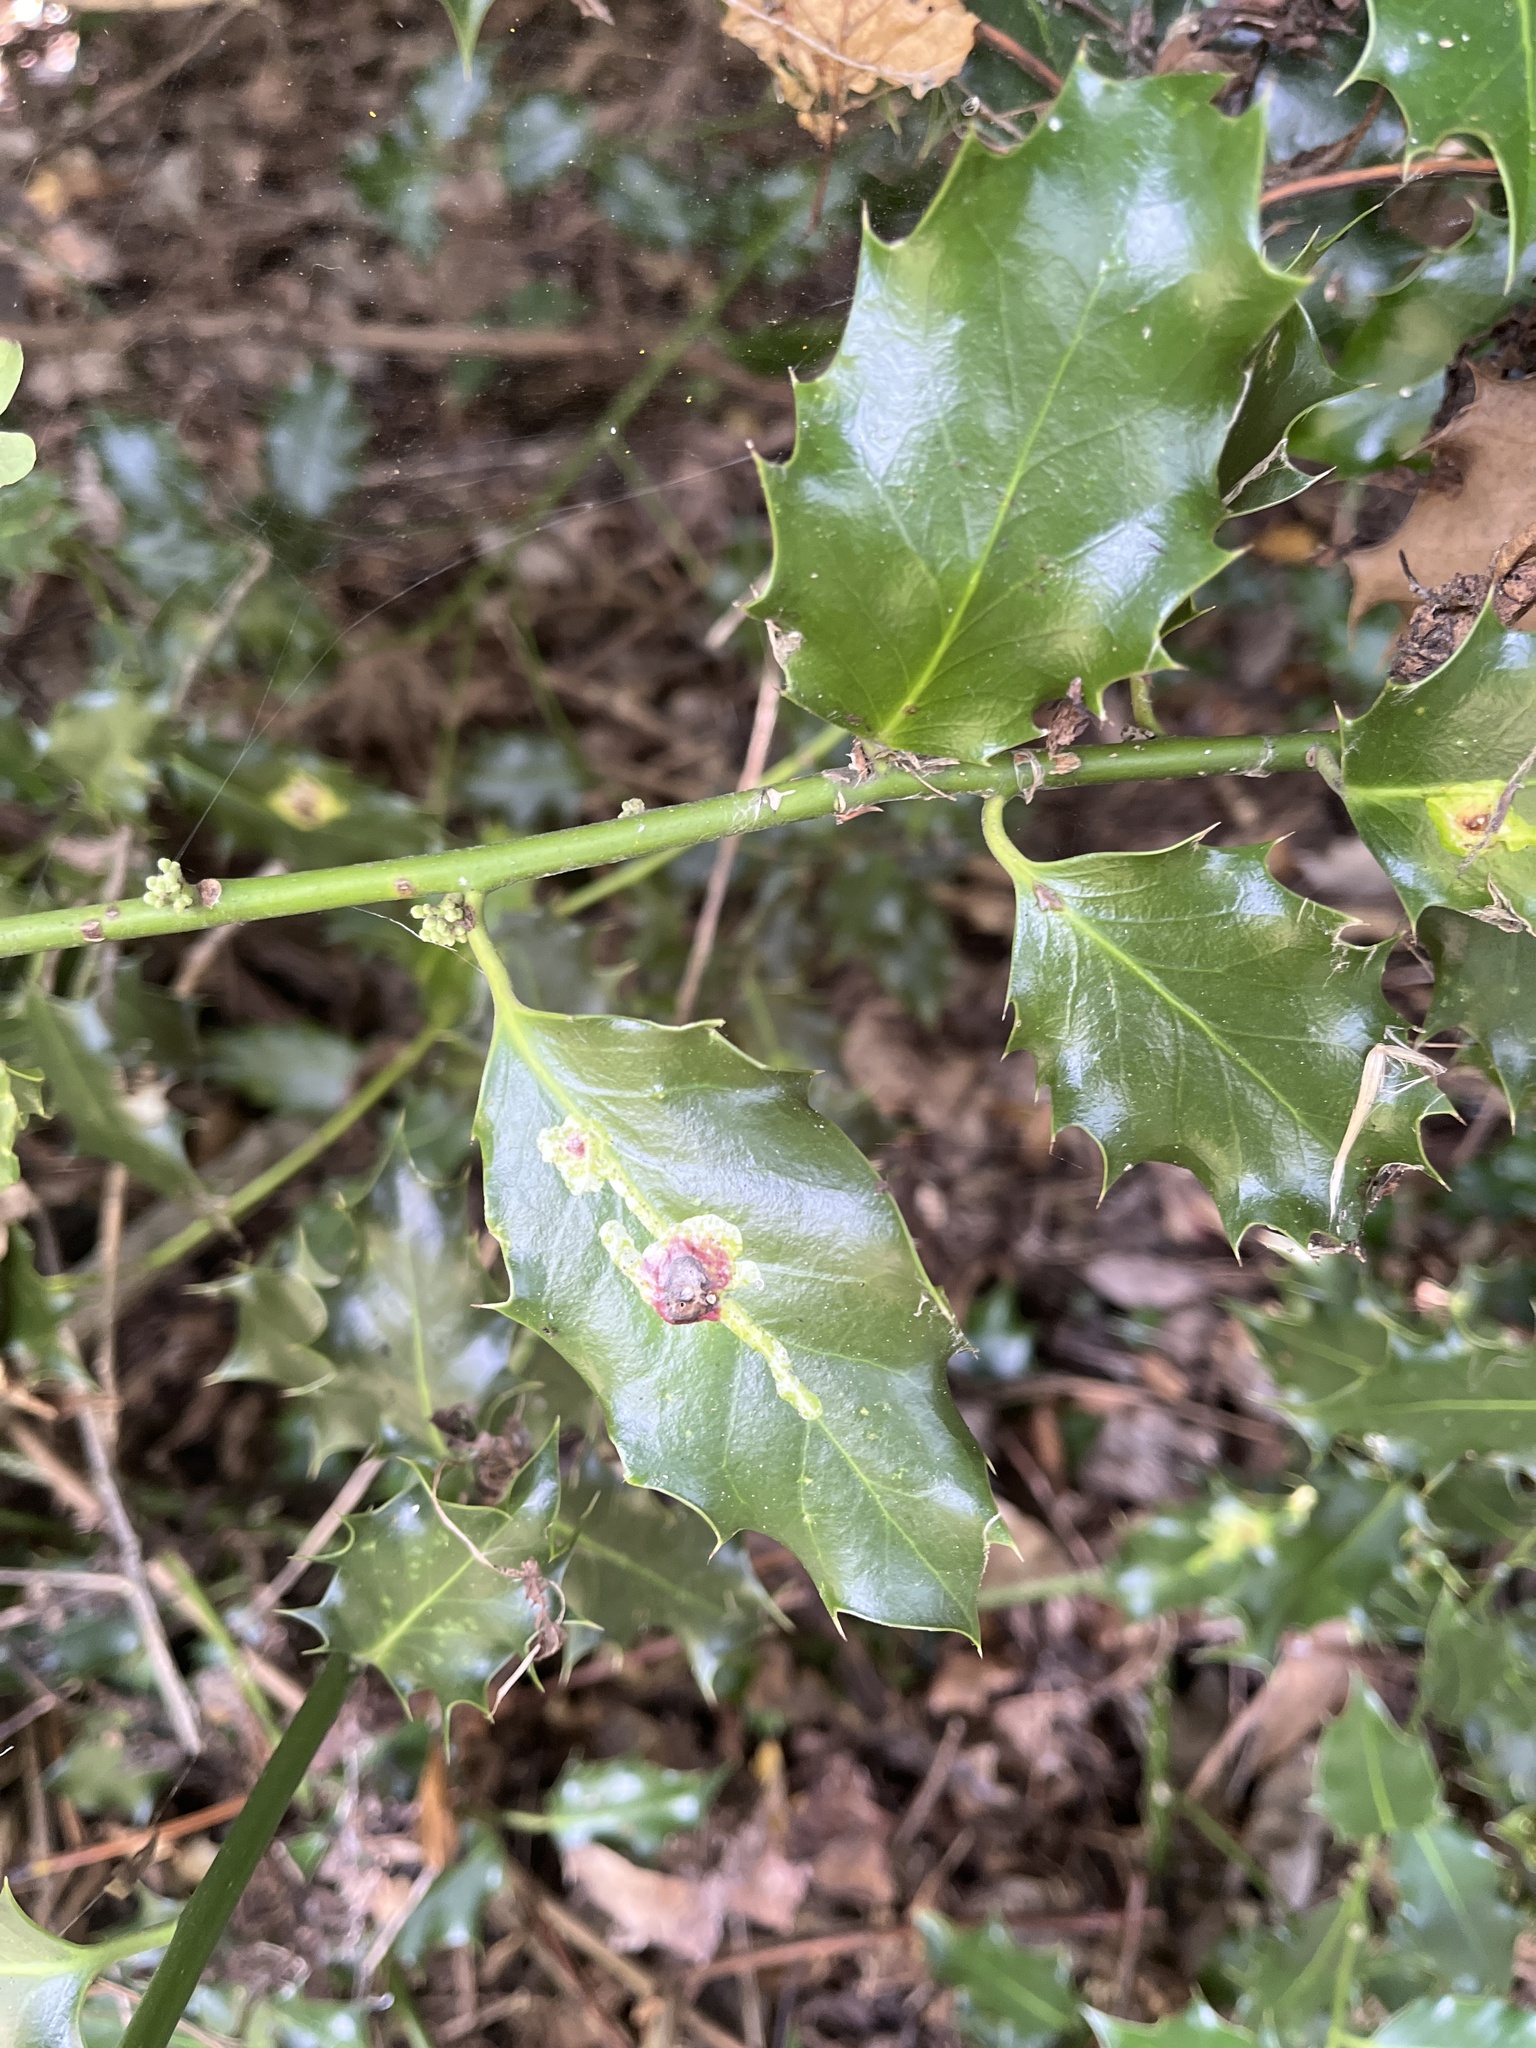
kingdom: Animalia
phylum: Arthropoda
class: Insecta
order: Diptera
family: Agromyzidae
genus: Phytomyza
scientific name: Phytomyza ilicis
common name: Holly leafminer
